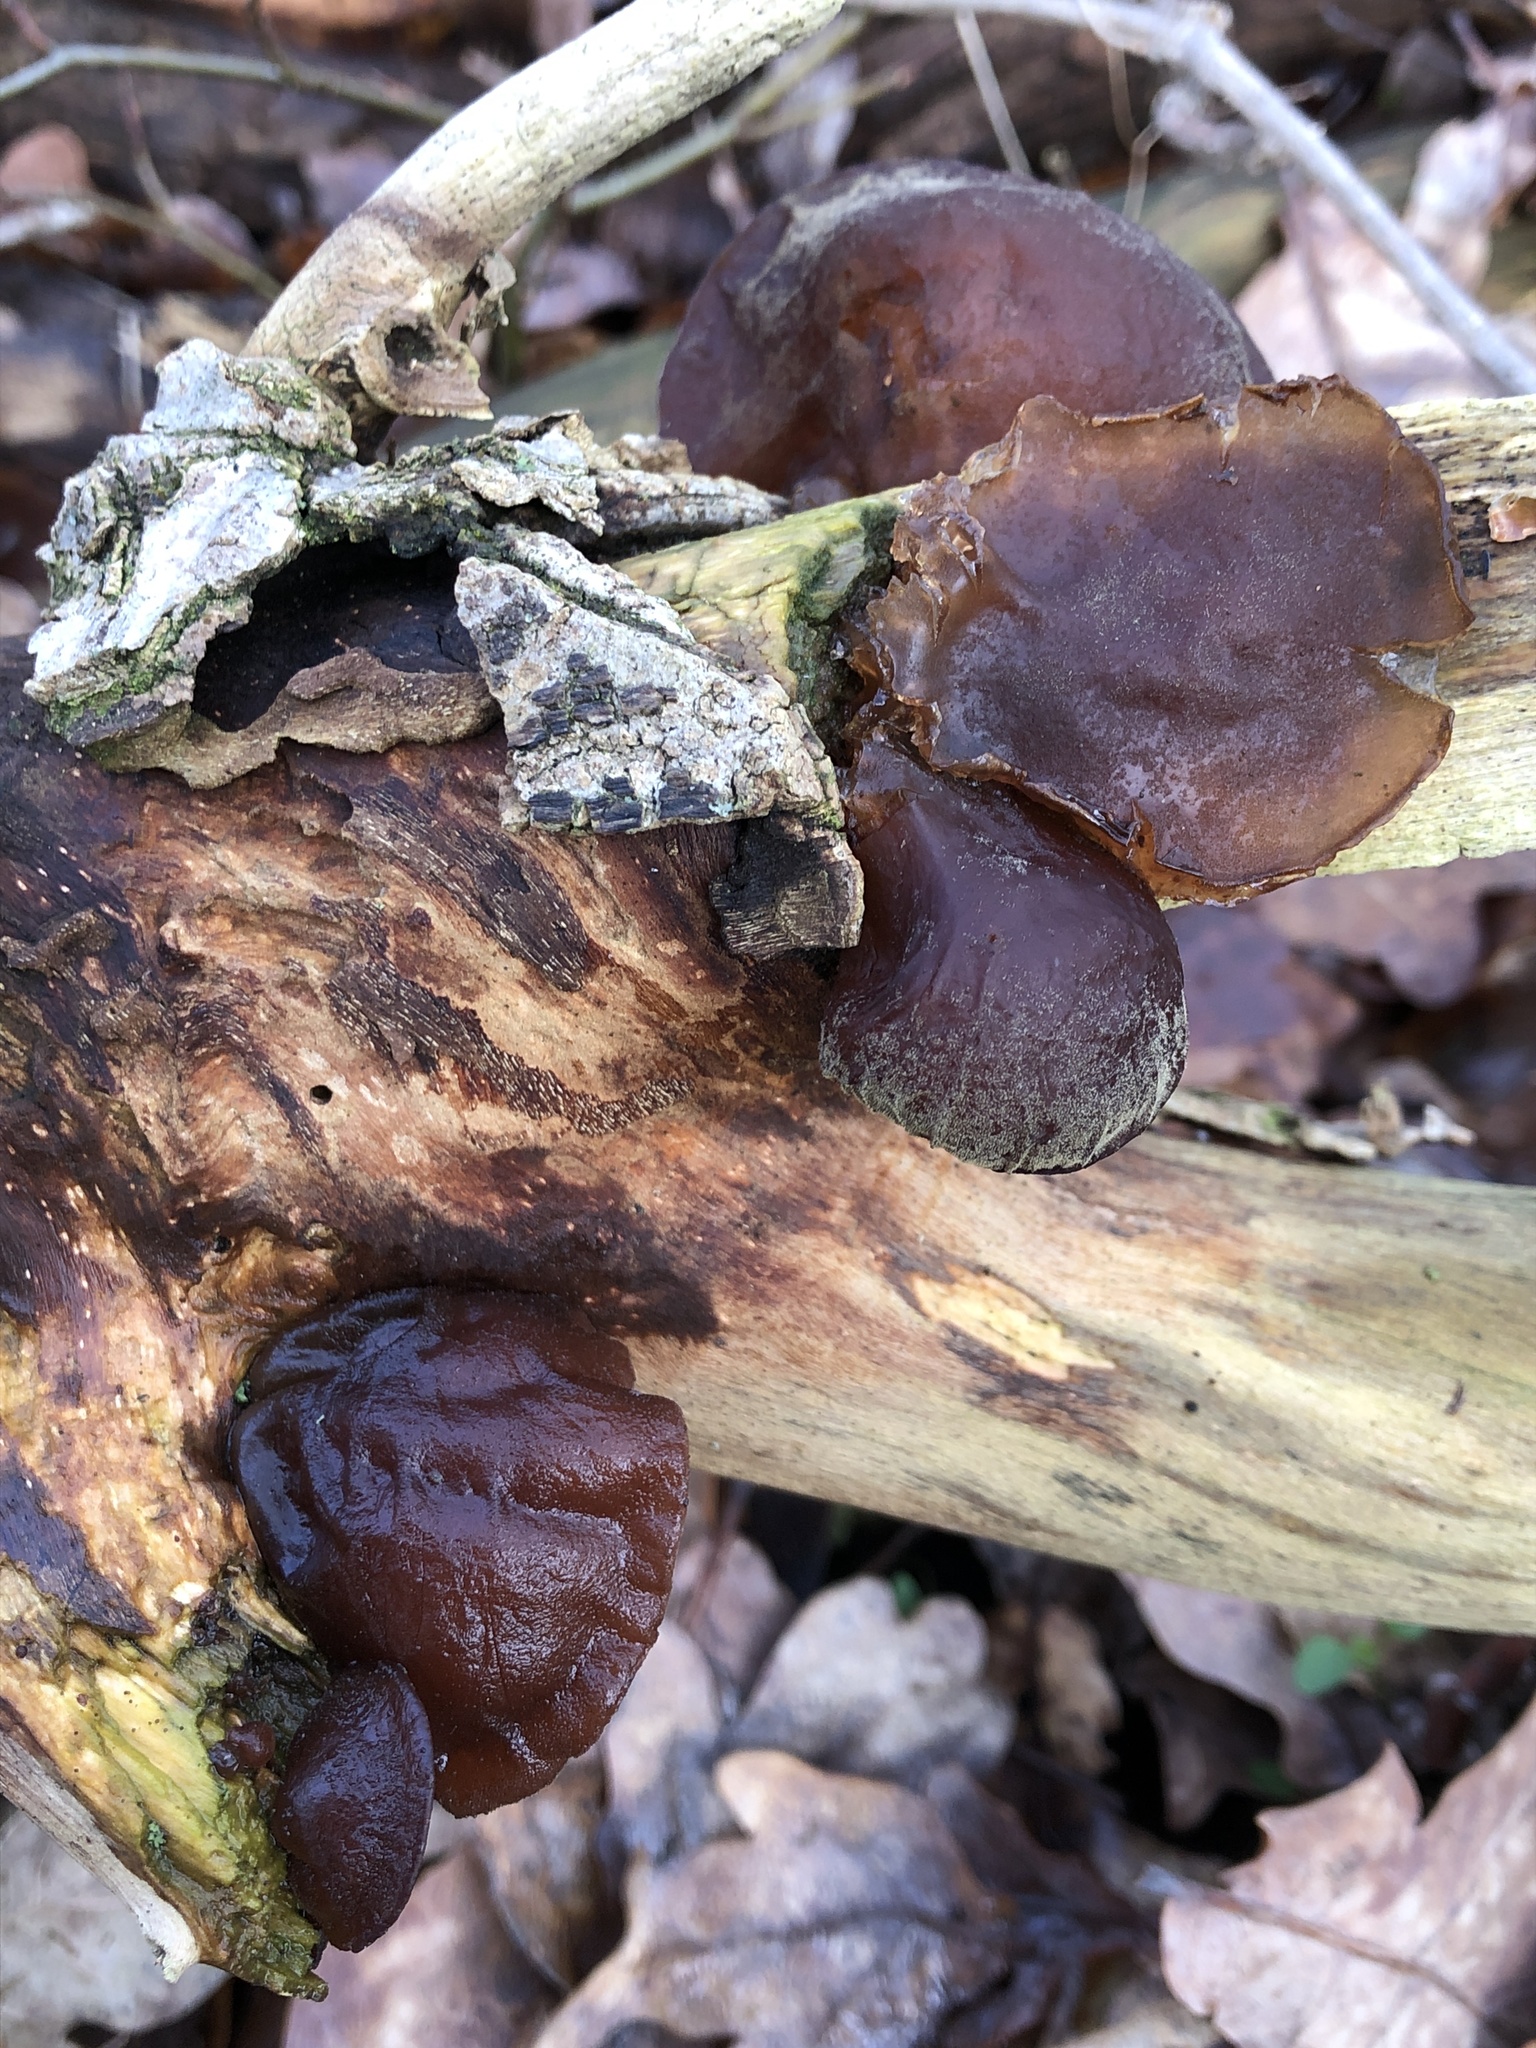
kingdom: Fungi
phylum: Basidiomycota
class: Agaricomycetes
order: Auriculariales
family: Auriculariaceae
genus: Auricularia
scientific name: Auricularia auricula-judae
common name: Jelly ear
